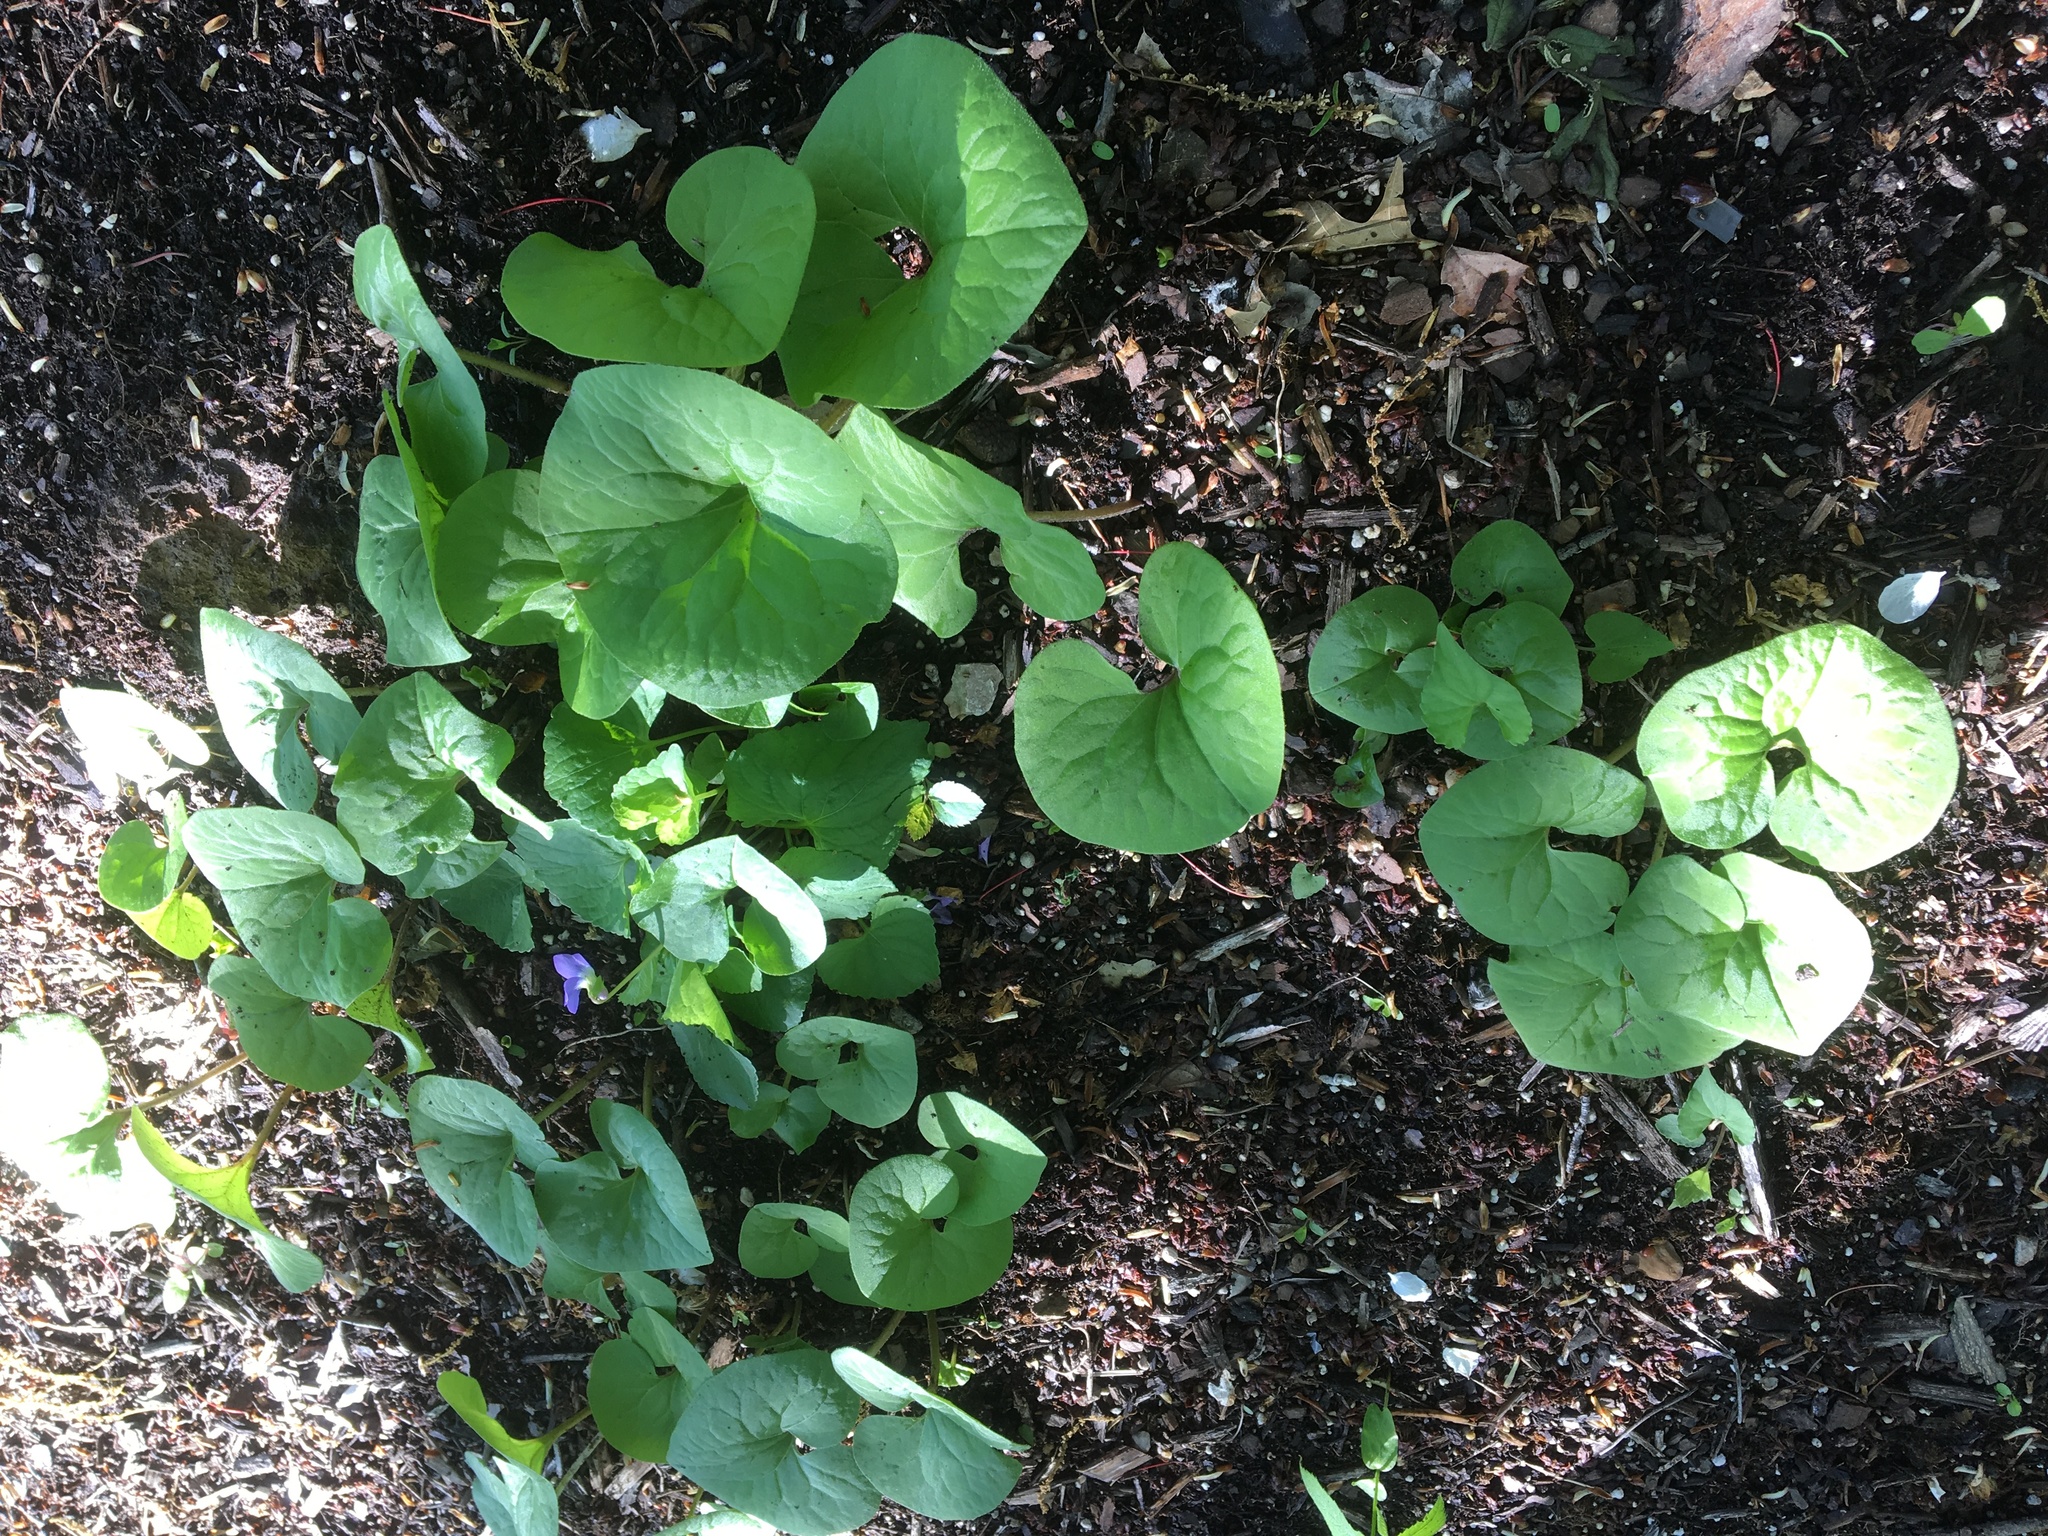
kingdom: Plantae
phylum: Tracheophyta
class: Magnoliopsida
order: Piperales
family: Aristolochiaceae
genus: Asarum
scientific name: Asarum canadense
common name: Wild ginger
